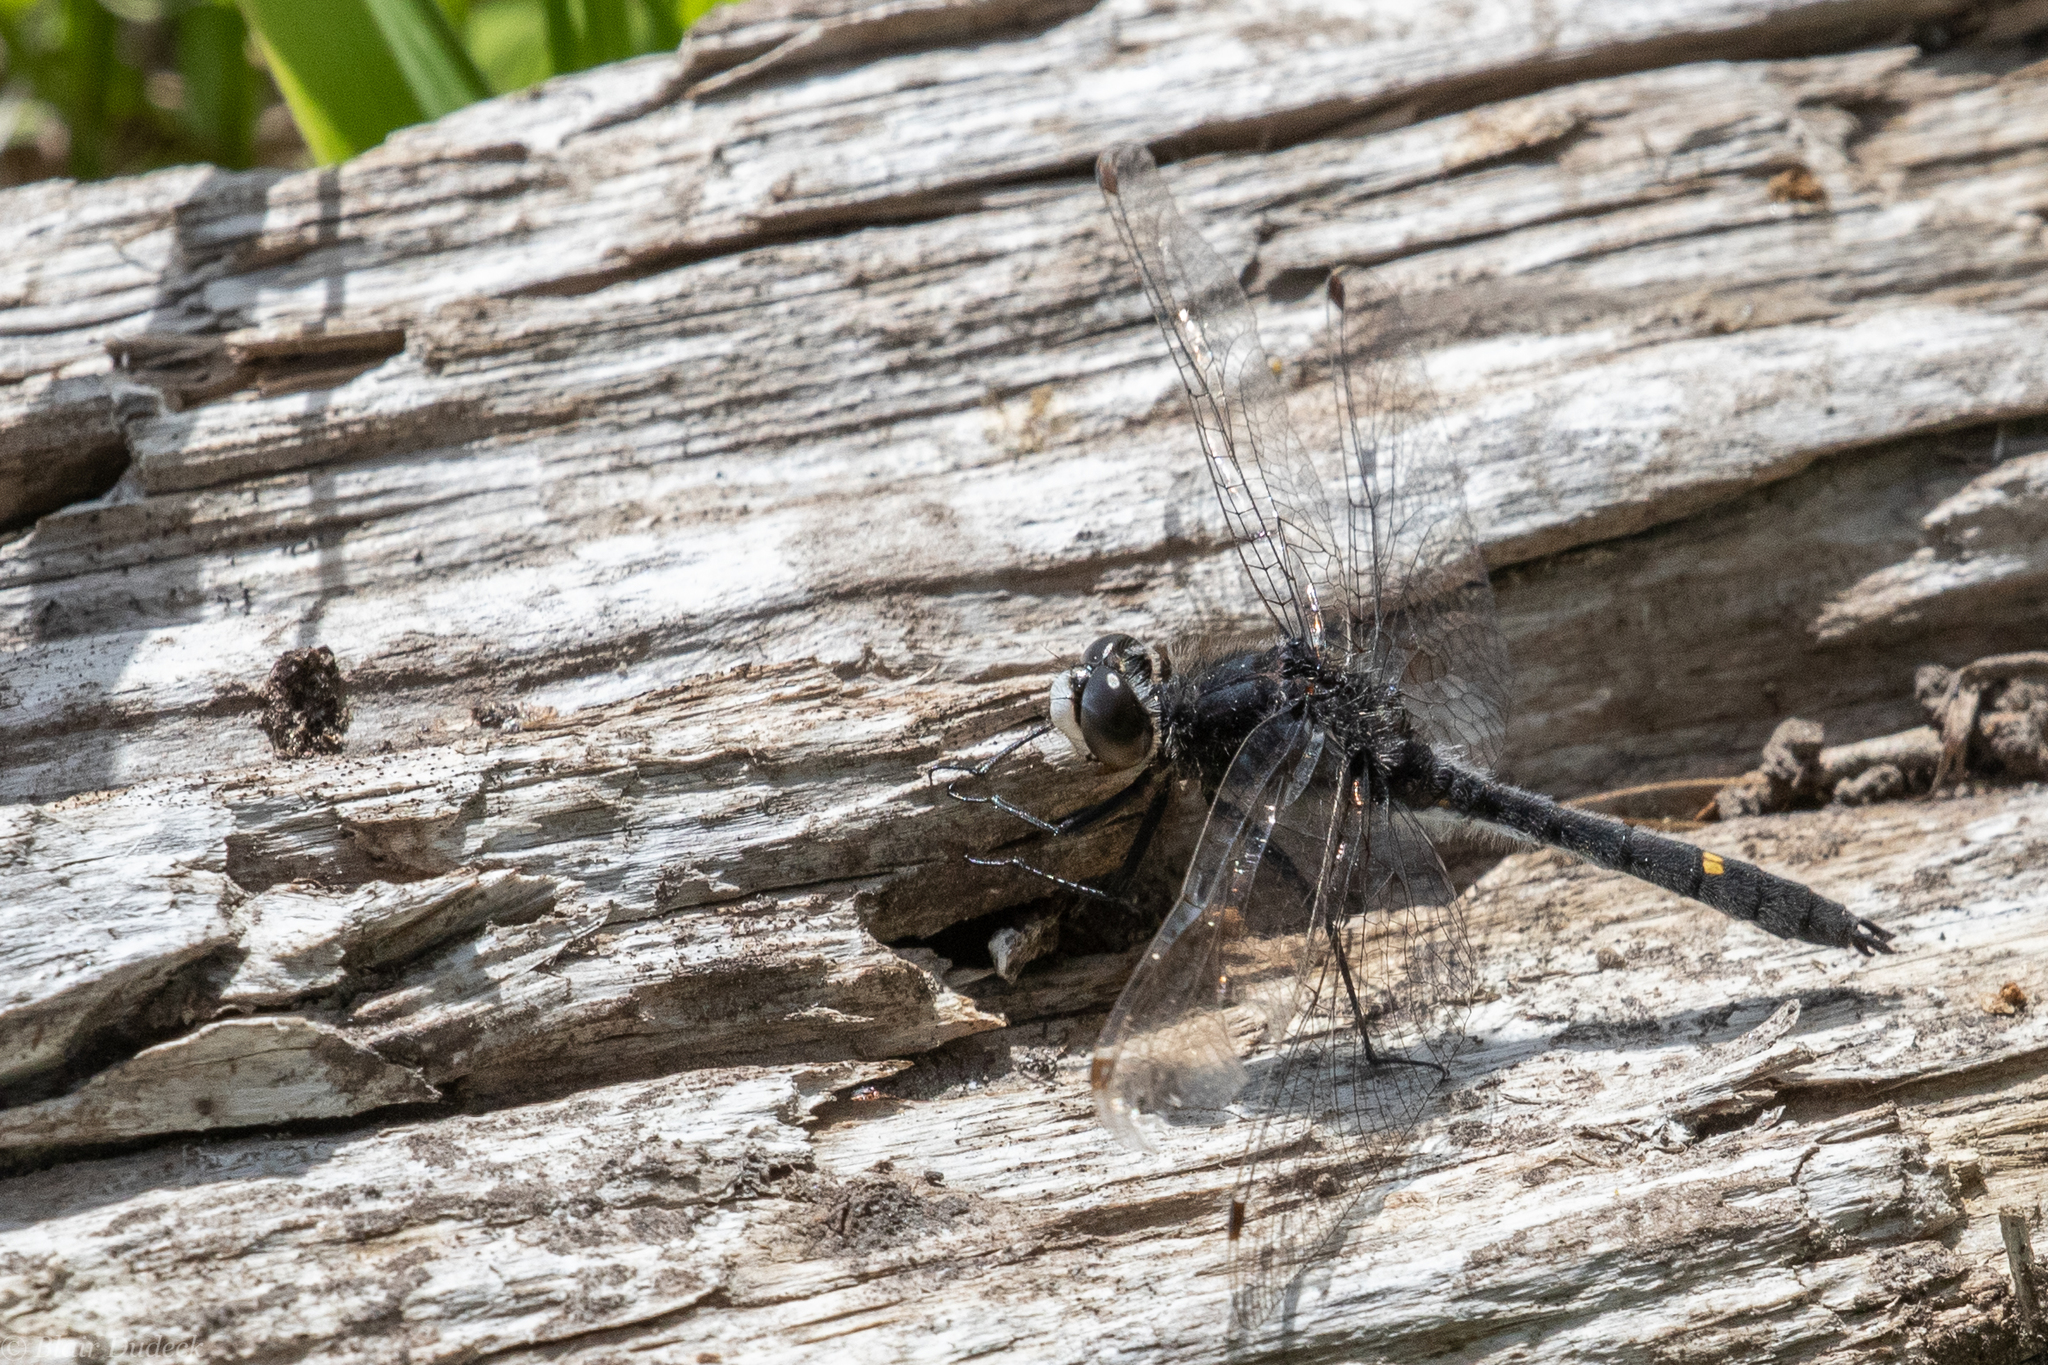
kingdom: Animalia
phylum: Arthropoda
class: Insecta
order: Odonata
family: Libellulidae
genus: Leucorrhinia
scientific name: Leucorrhinia intacta
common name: Dot-tailed whiteface
